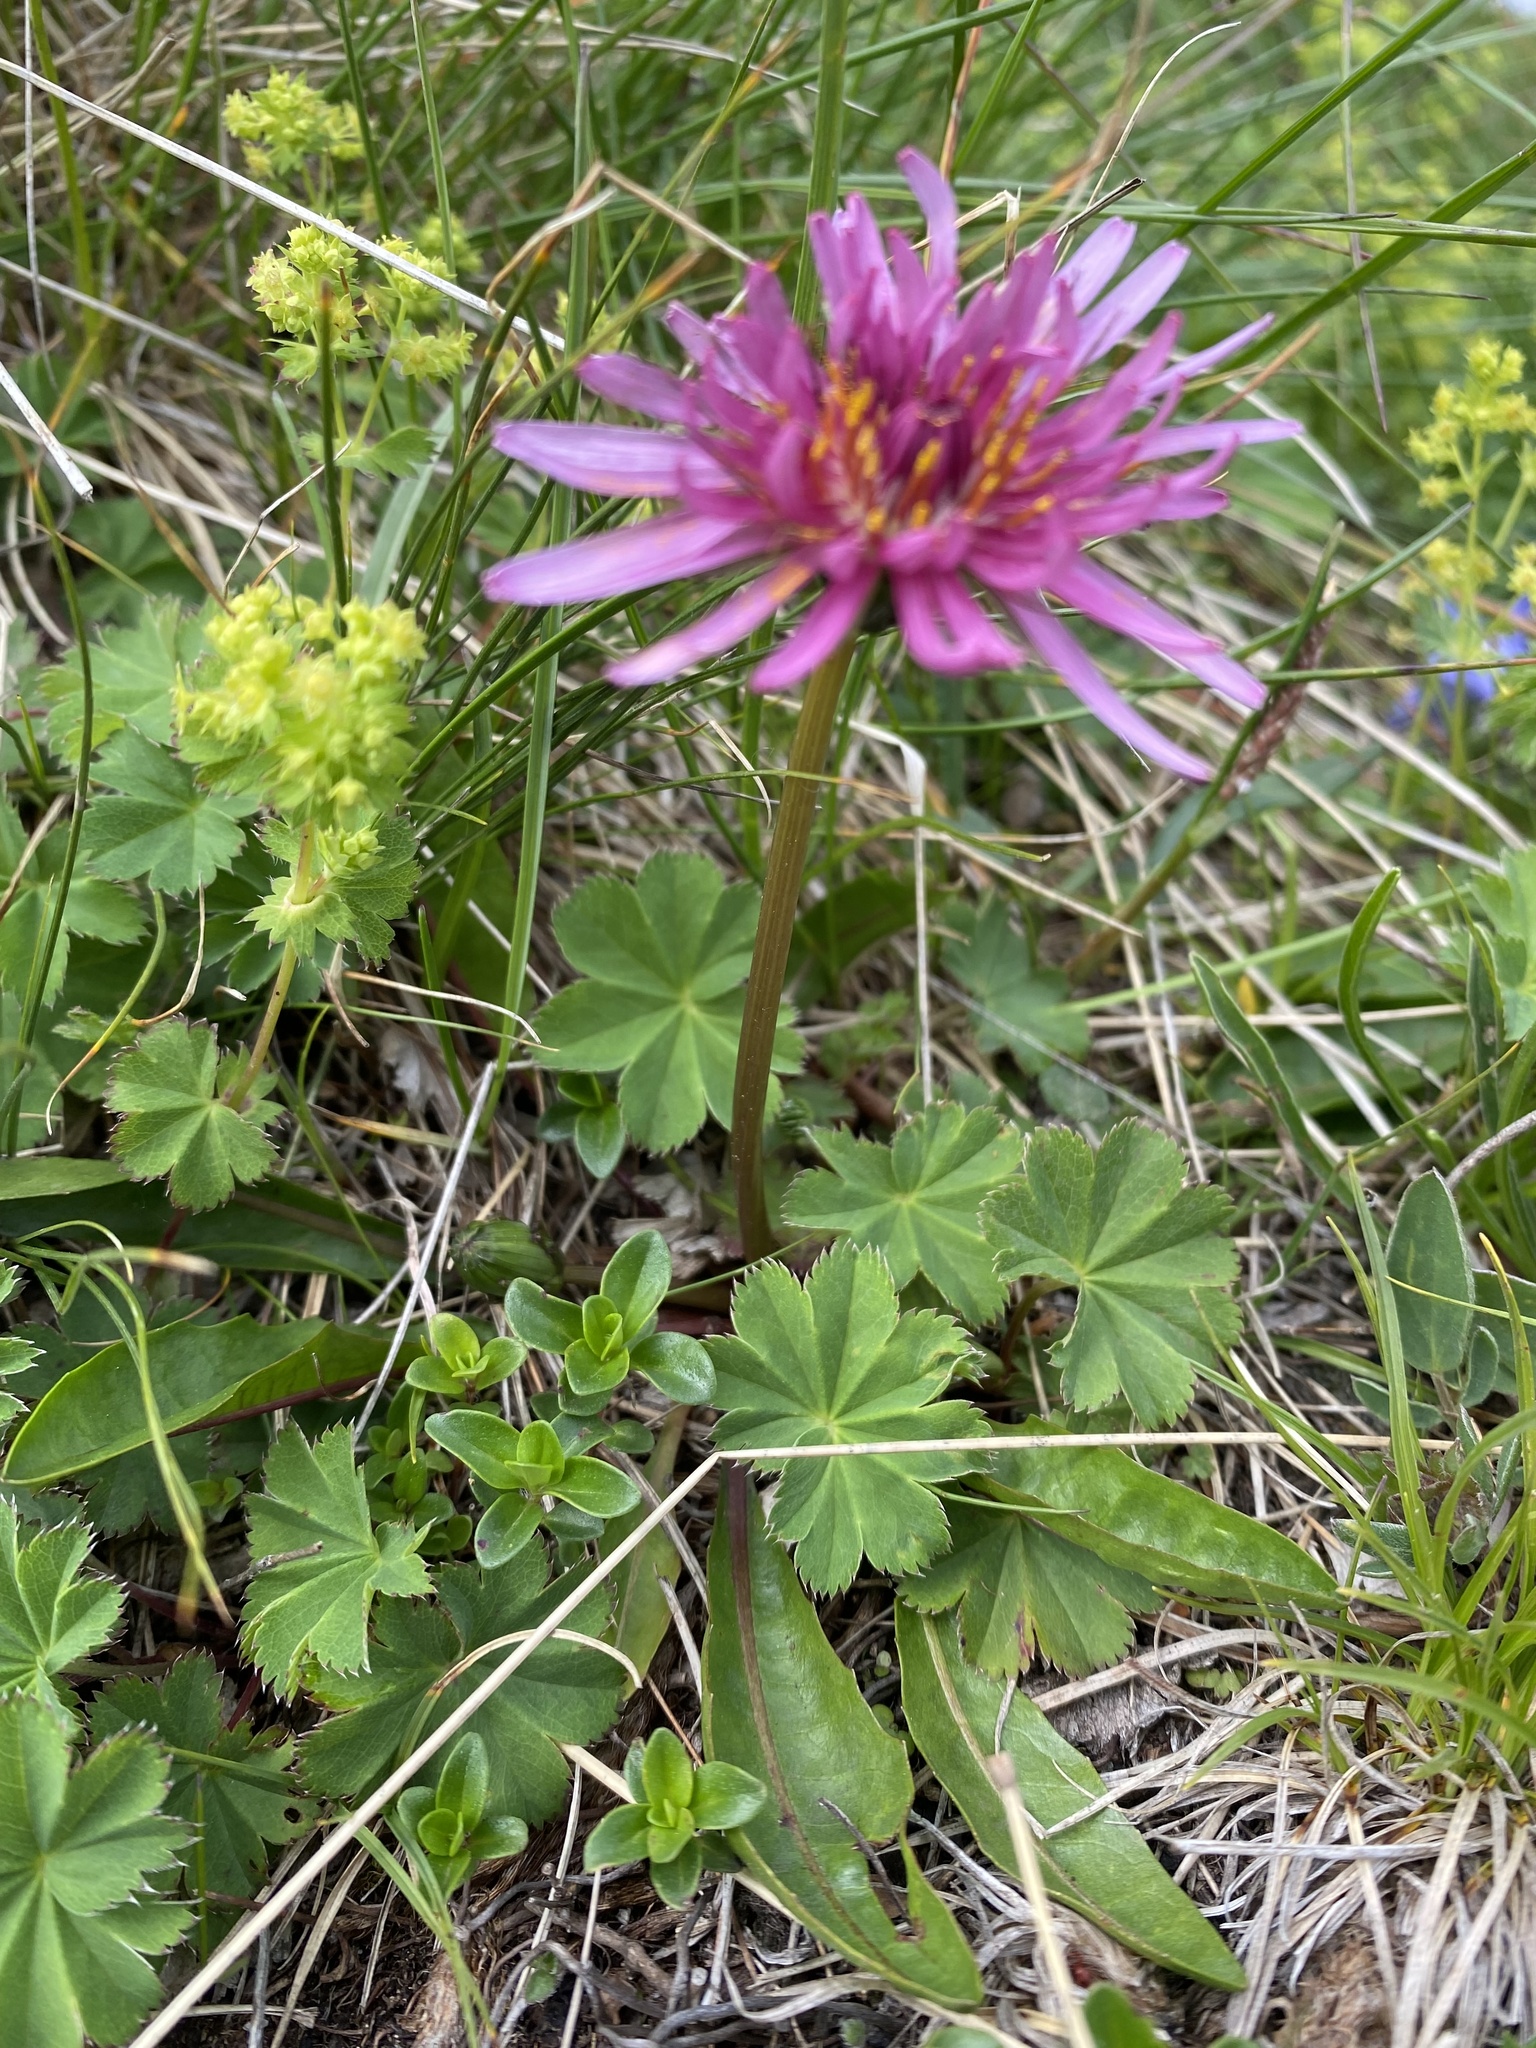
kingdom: Plantae
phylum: Tracheophyta
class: Magnoliopsida
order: Asterales
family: Asteraceae
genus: Taraxacum
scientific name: Taraxacum porphyranthum
